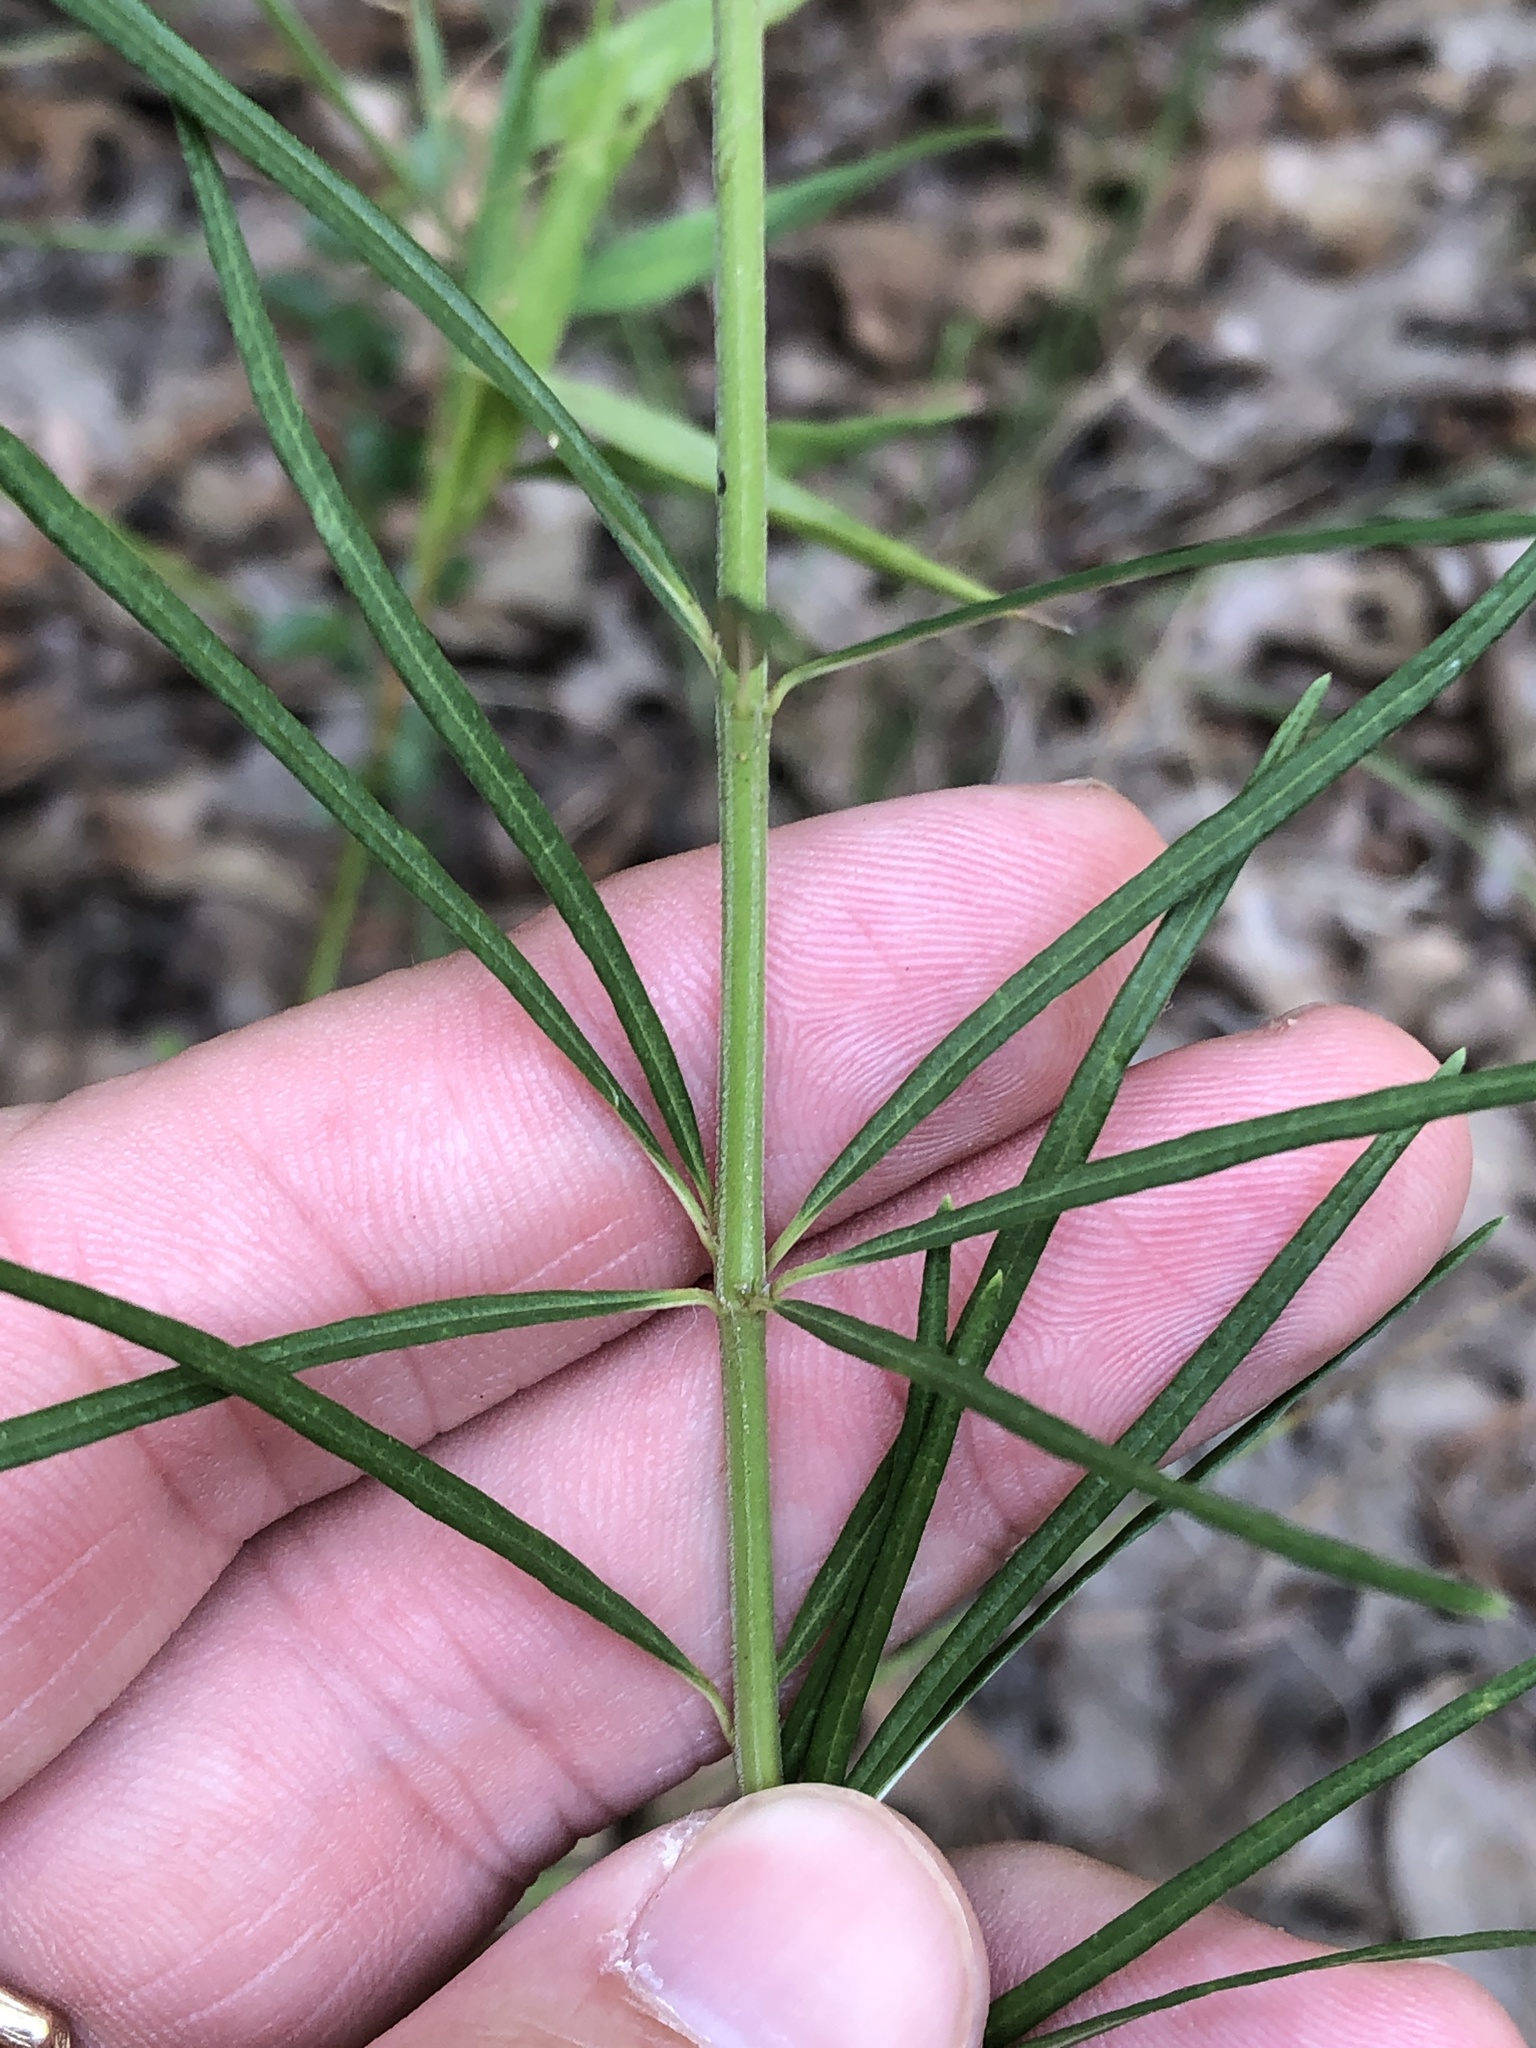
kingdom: Plantae
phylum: Tracheophyta
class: Magnoliopsida
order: Gentianales
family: Apocynaceae
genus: Asclepias
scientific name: Asclepias verticillata
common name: Eastern whorled milkweed
